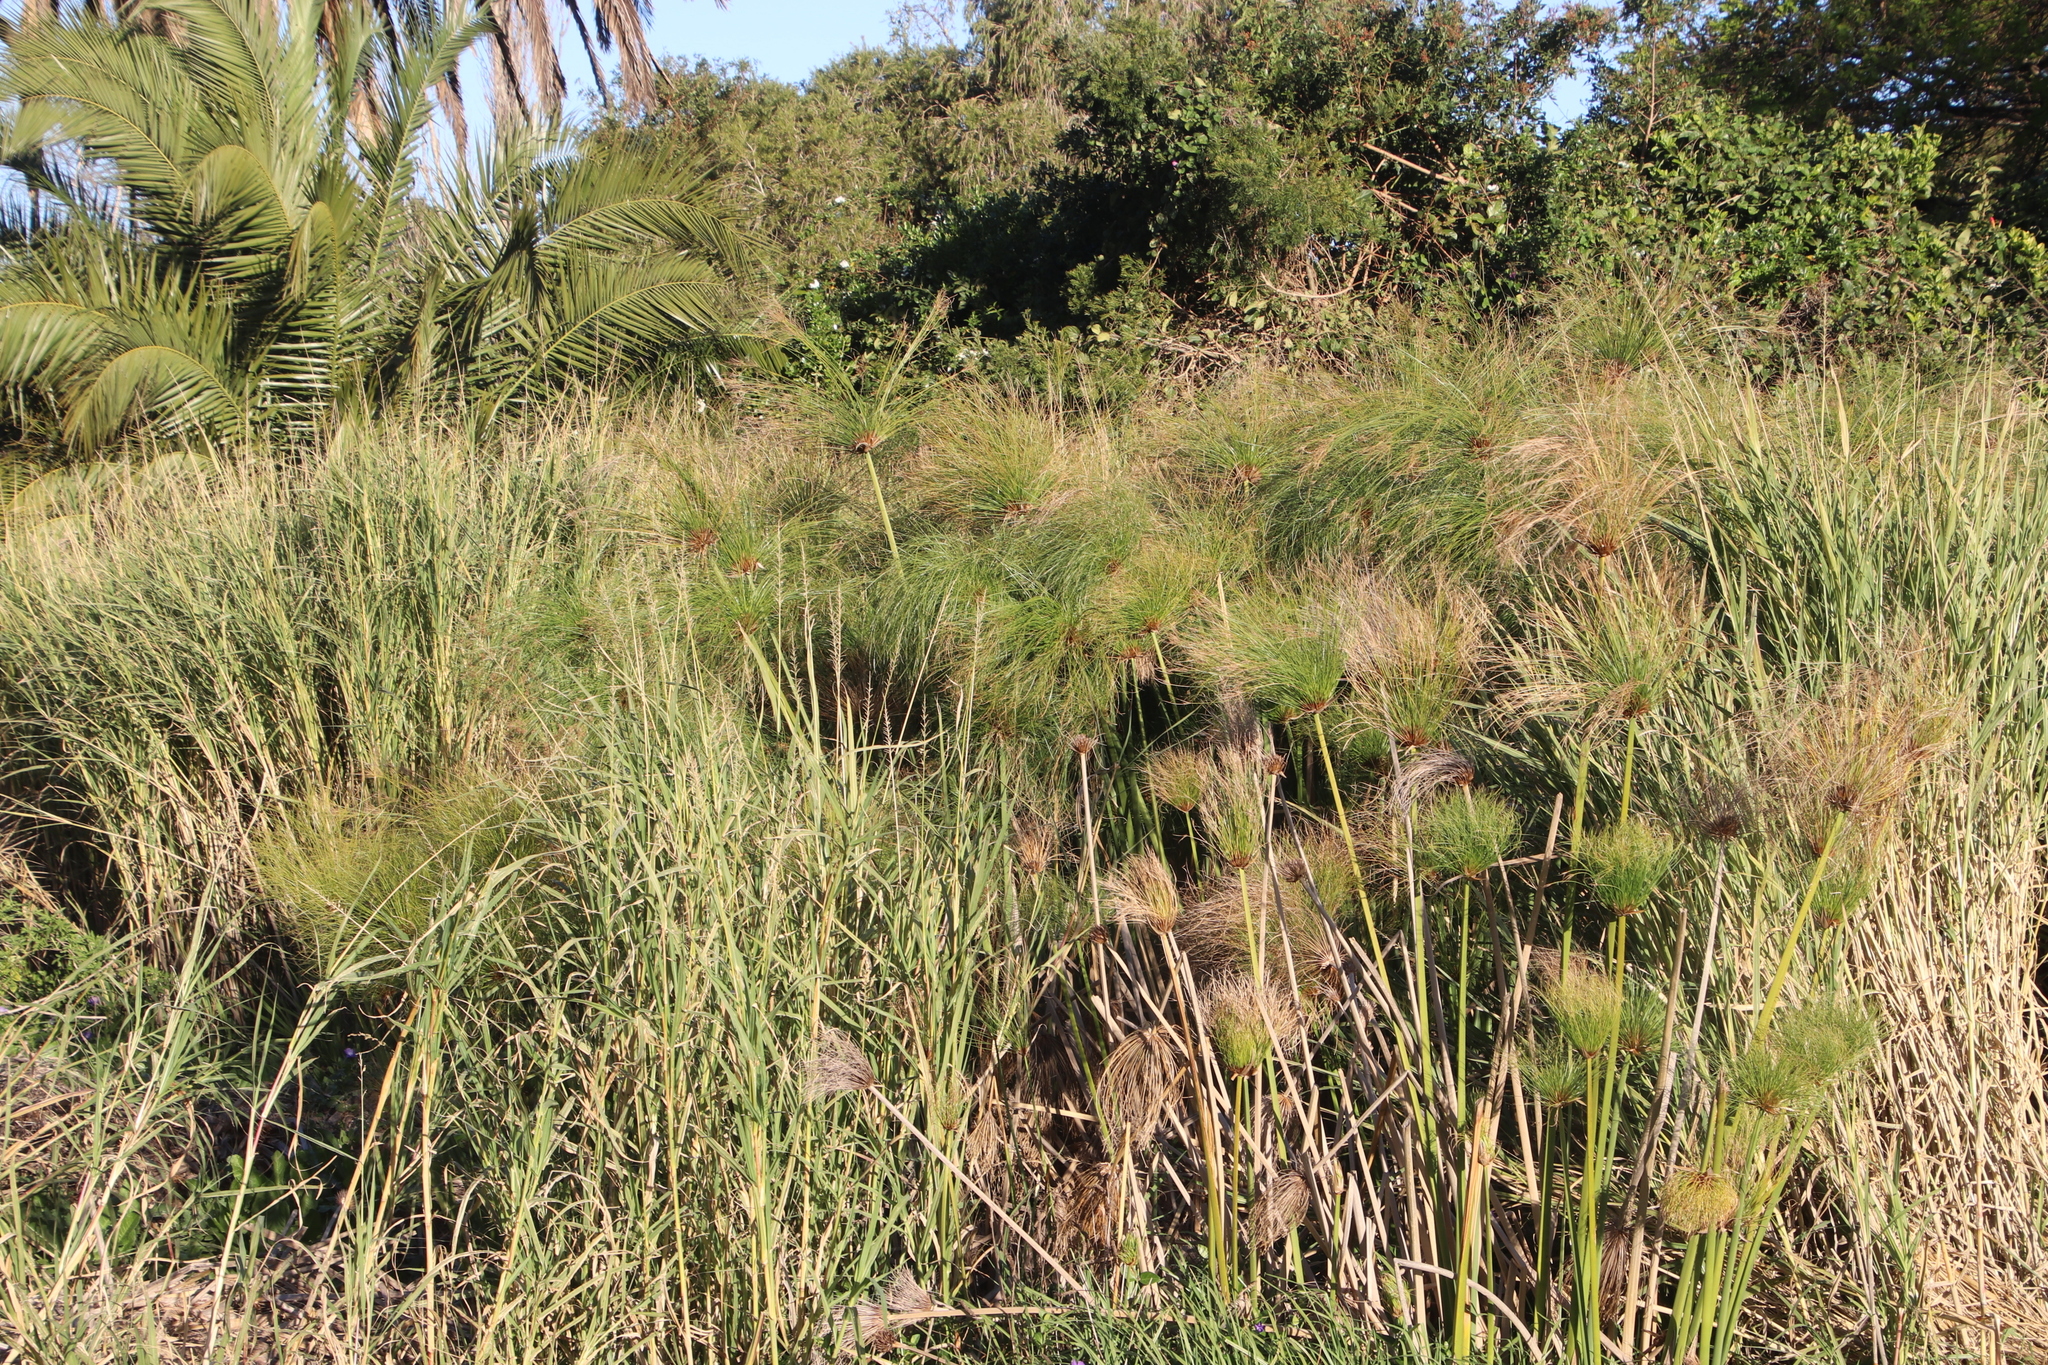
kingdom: Plantae
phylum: Tracheophyta
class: Liliopsida
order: Poales
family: Cyperaceae
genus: Cyperus
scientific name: Cyperus papyrus
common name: Papyrus
